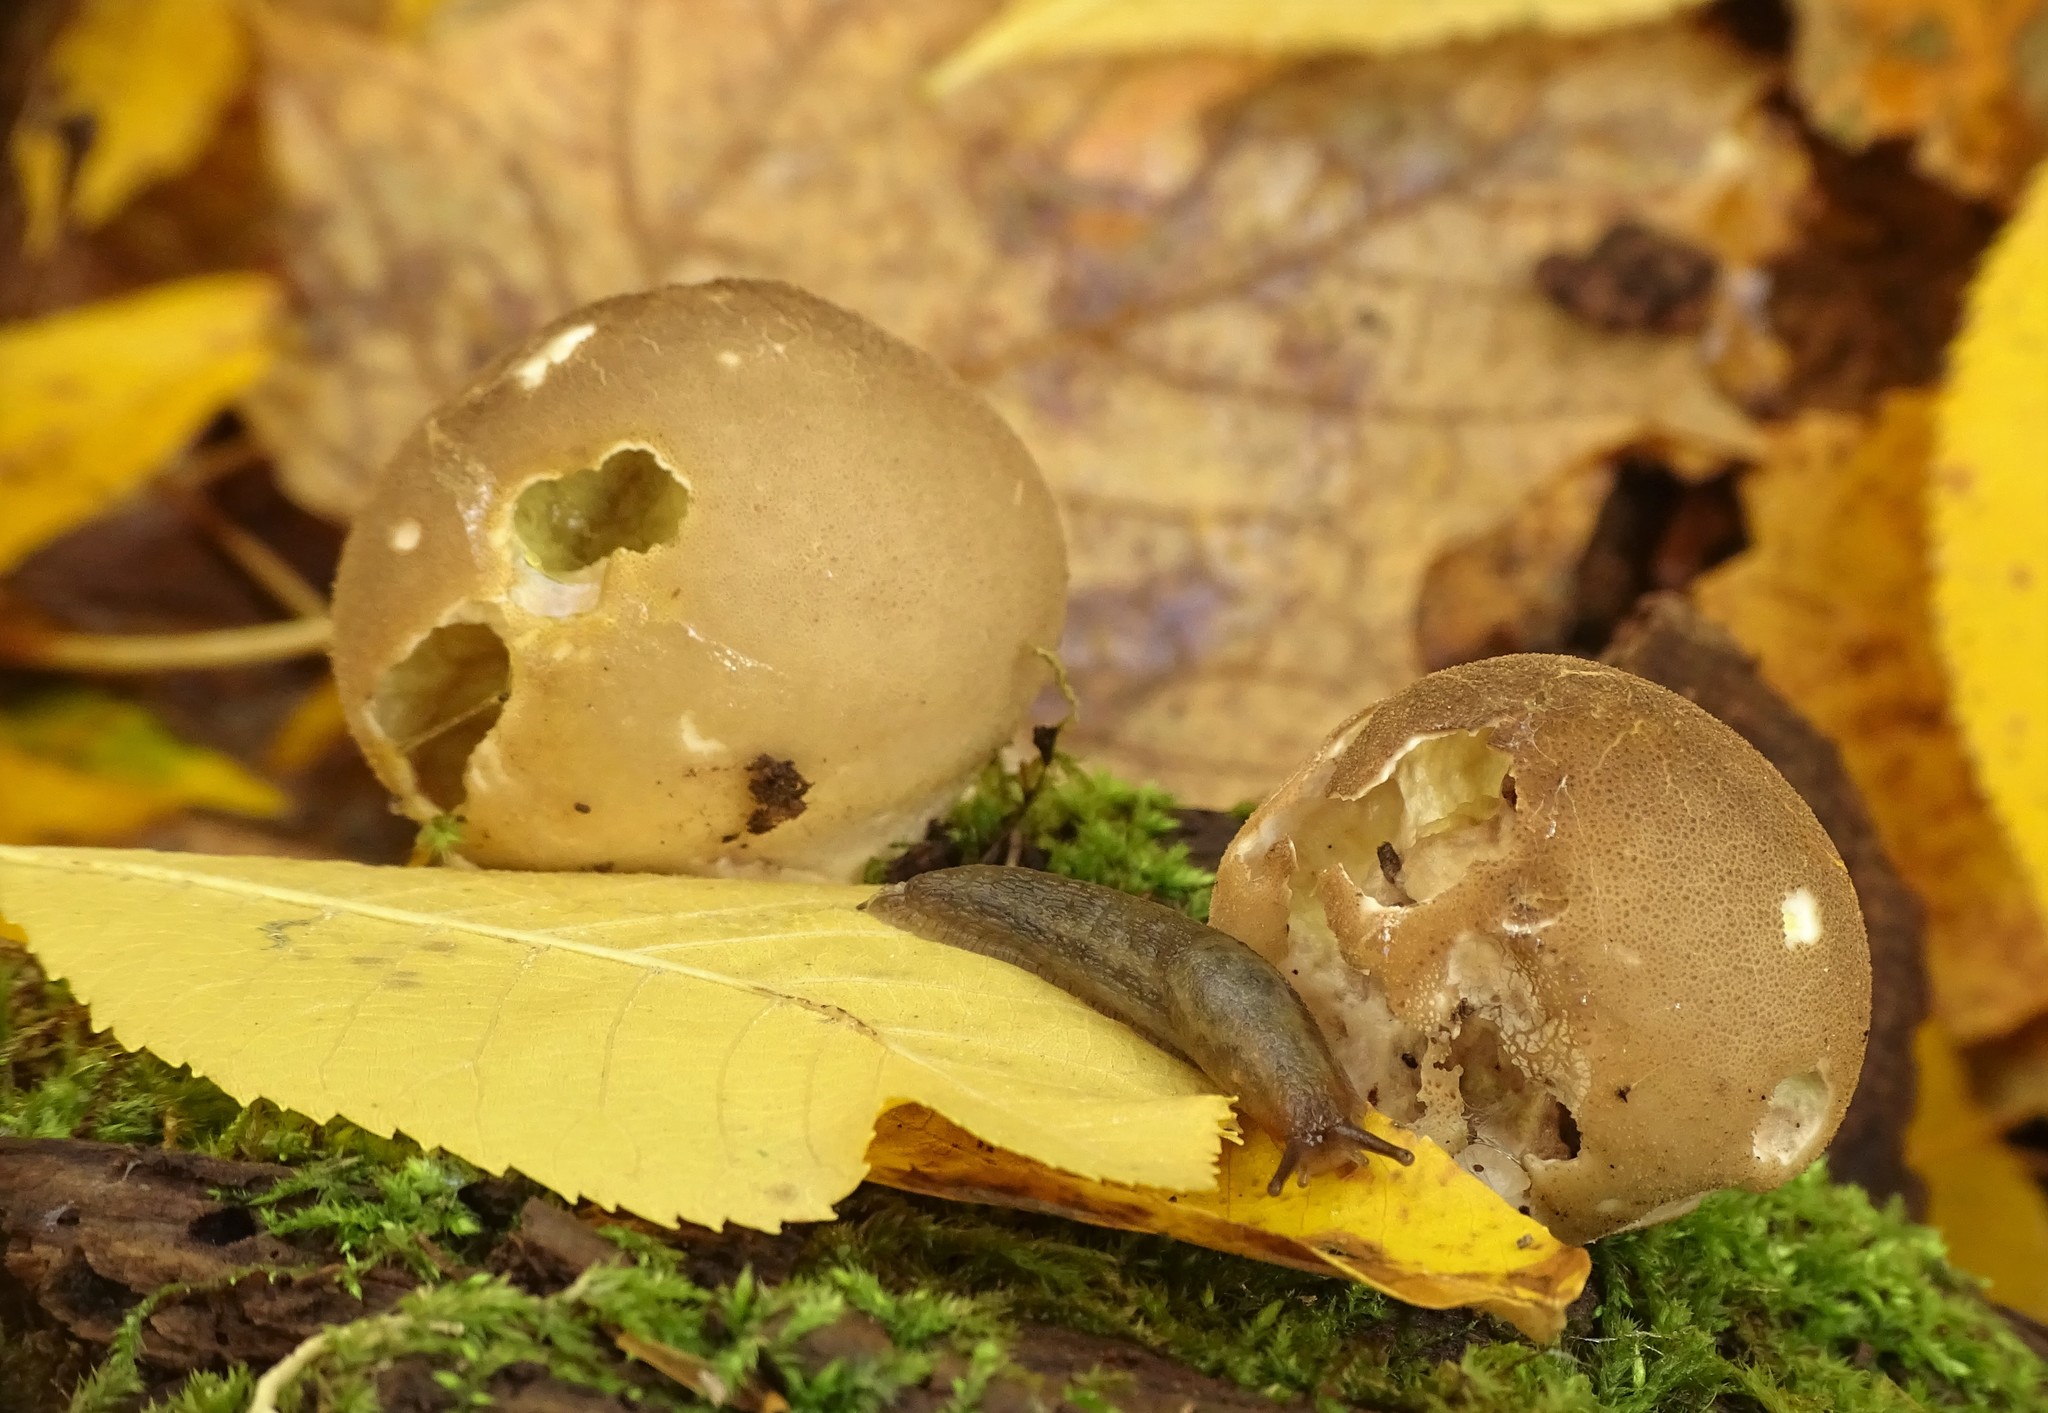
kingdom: Fungi
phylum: Basidiomycota
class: Agaricomycetes
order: Agaricales
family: Lycoperdaceae
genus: Apioperdon
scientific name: Apioperdon pyriforme
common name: Pear-shaped puffball
